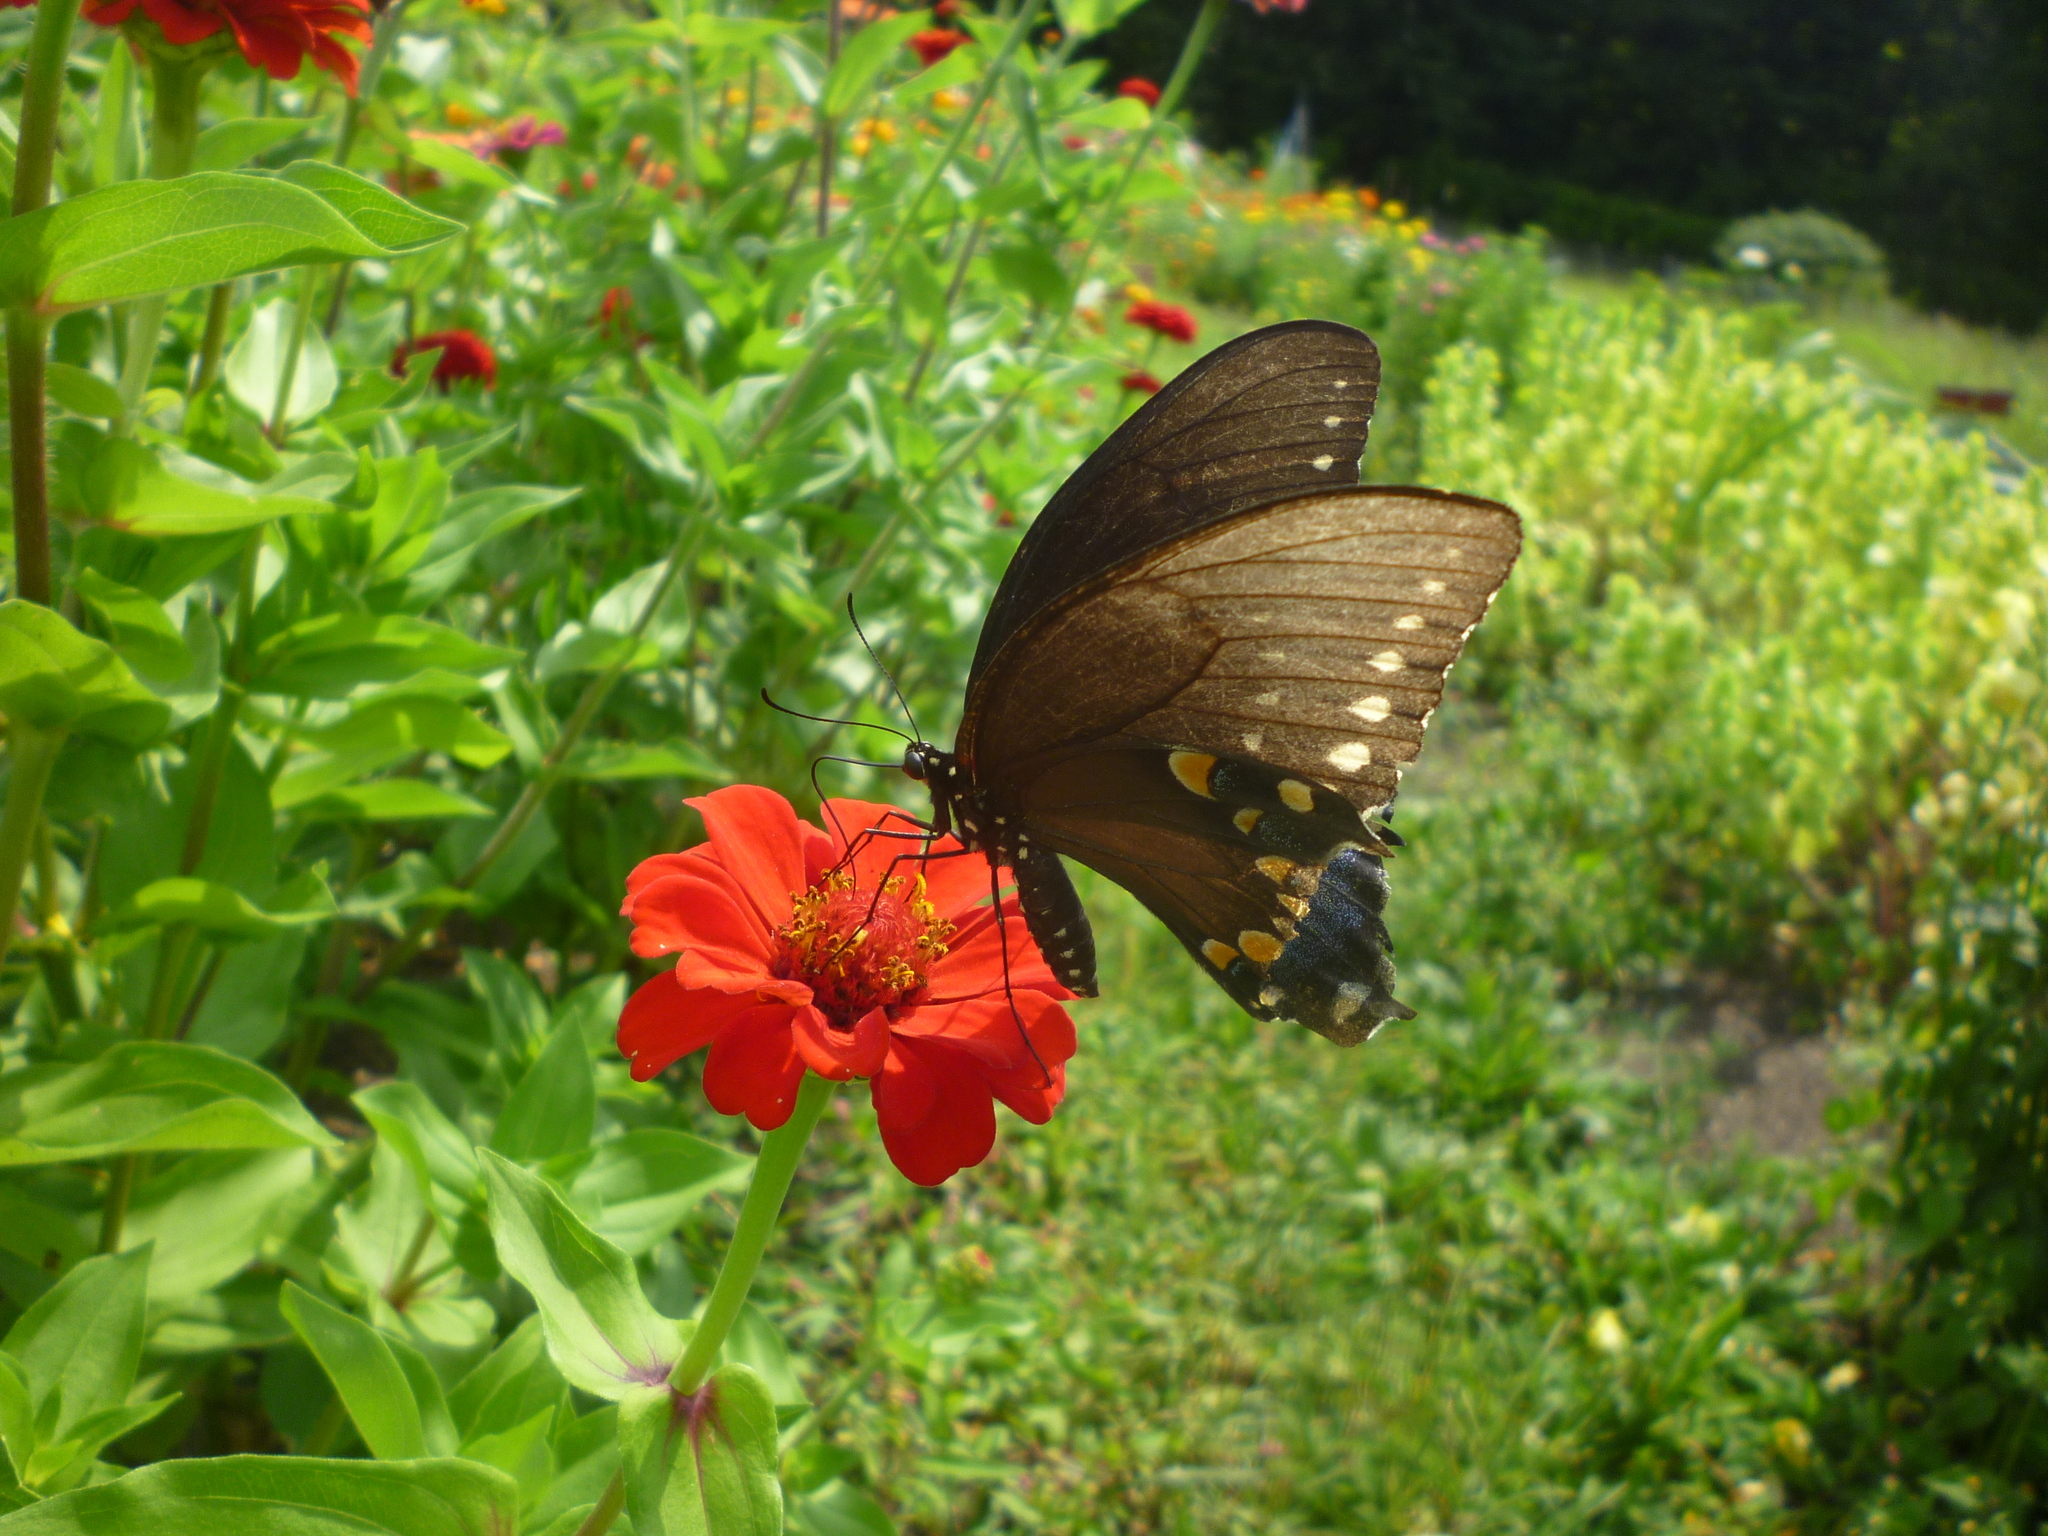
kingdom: Animalia
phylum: Arthropoda
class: Insecta
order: Lepidoptera
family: Papilionidae
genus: Papilio
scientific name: Papilio troilus
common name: Spicebush swallowtail
